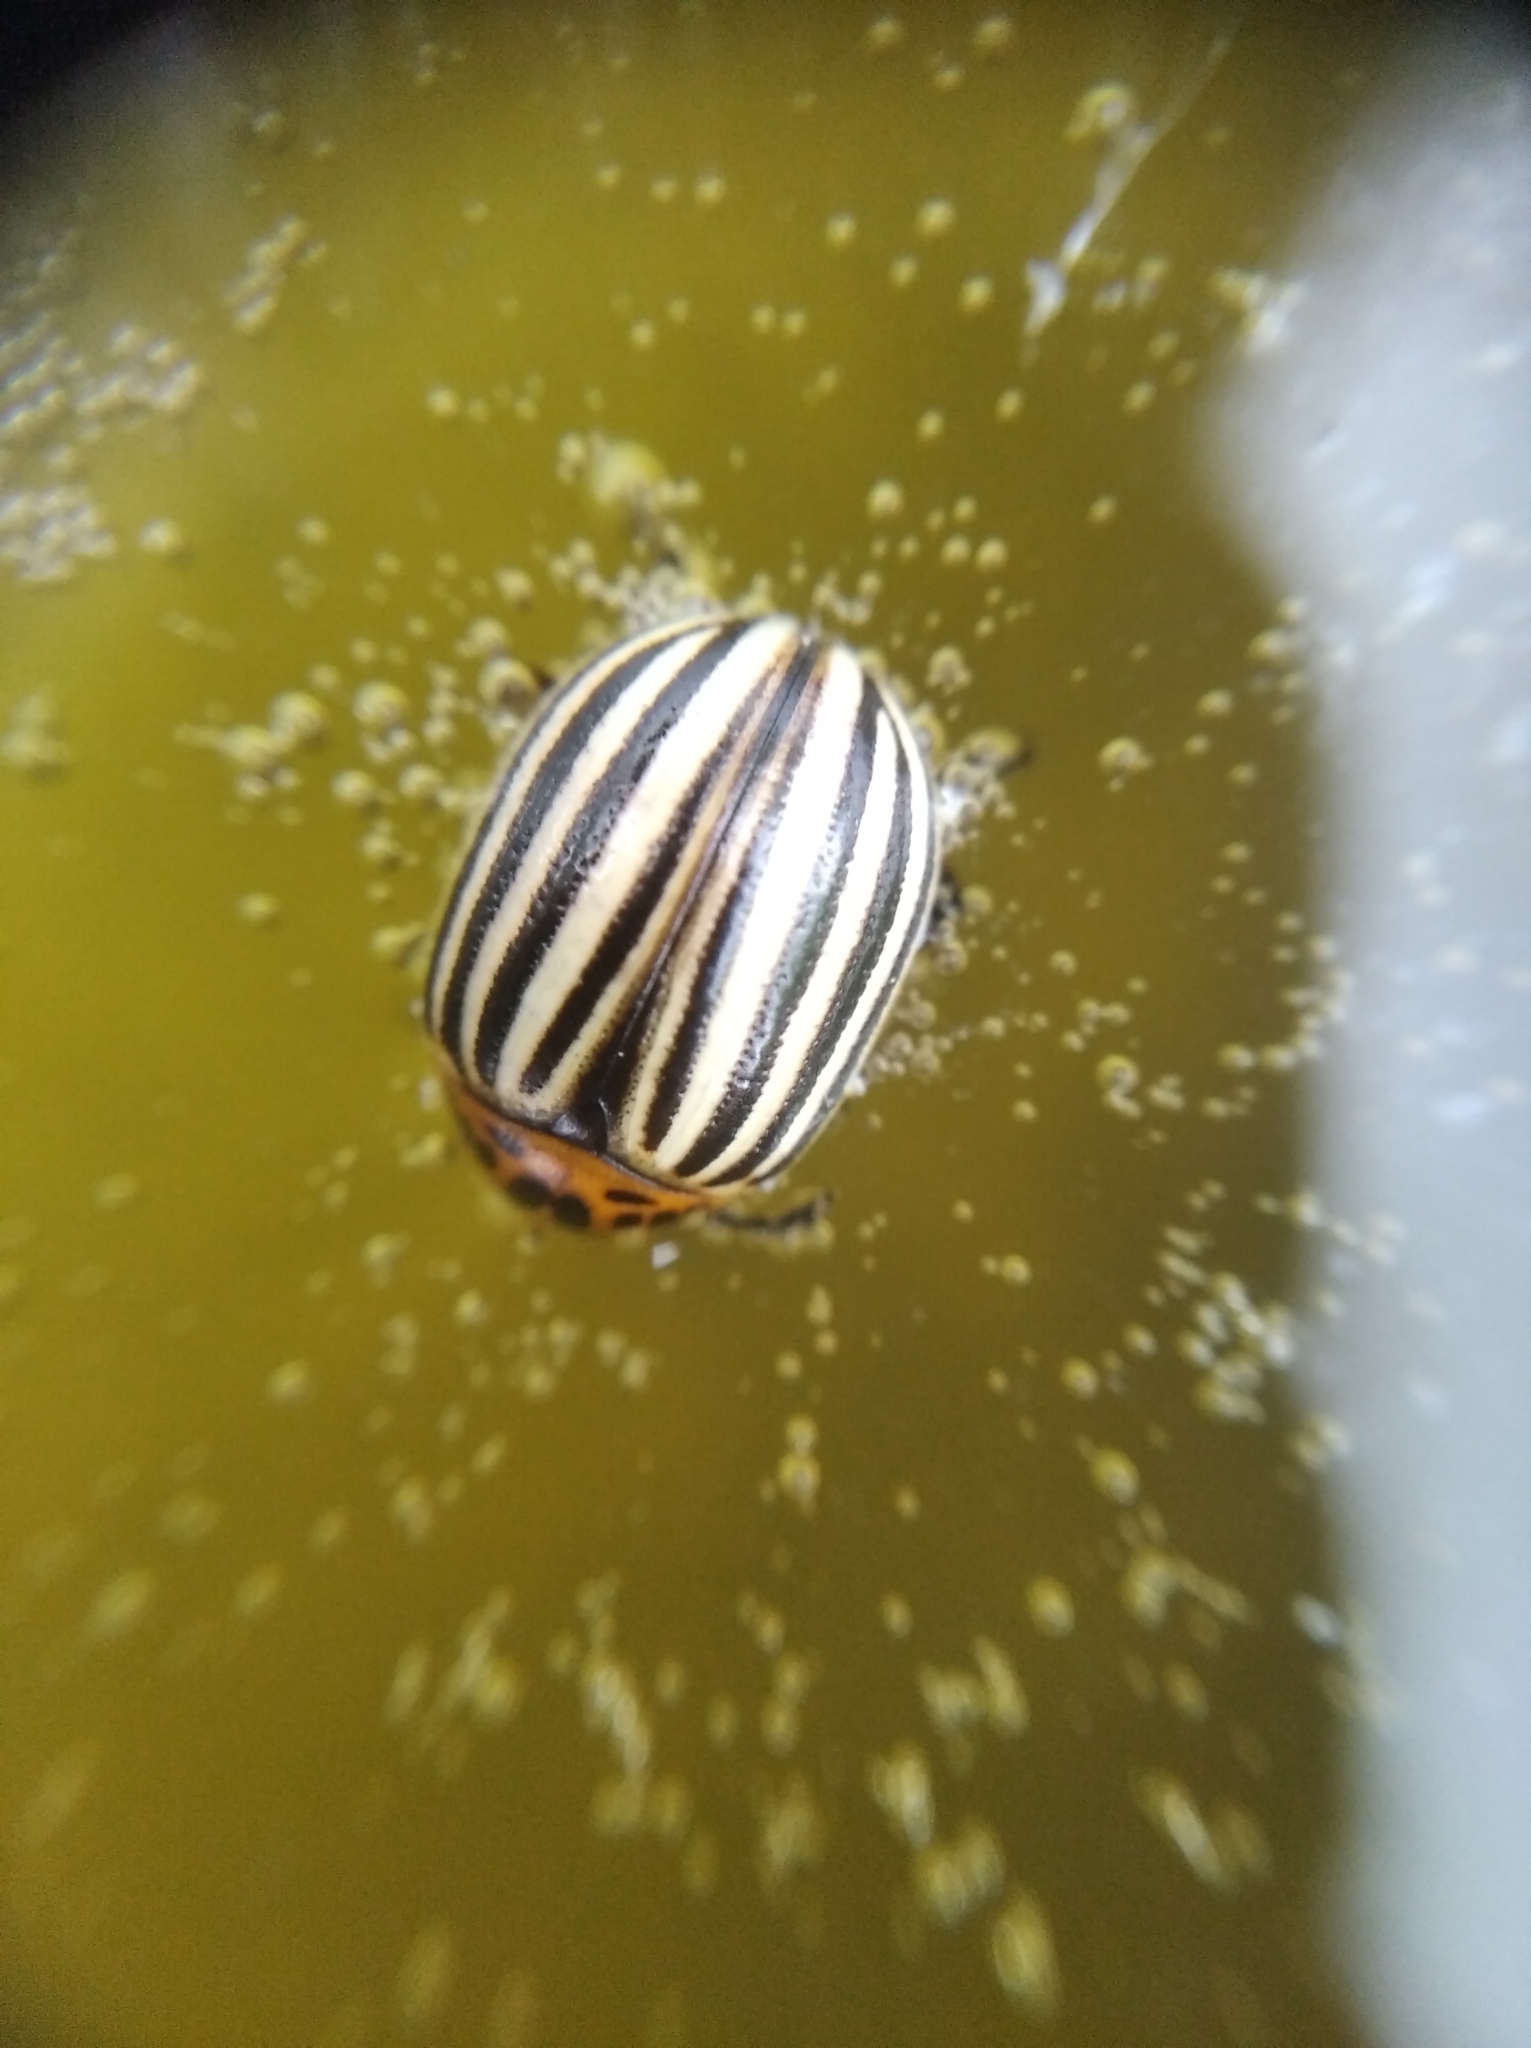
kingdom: Animalia
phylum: Arthropoda
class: Insecta
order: Coleoptera
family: Chrysomelidae
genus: Leptinotarsa
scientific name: Leptinotarsa decemlineata
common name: Colorado potato beetle
